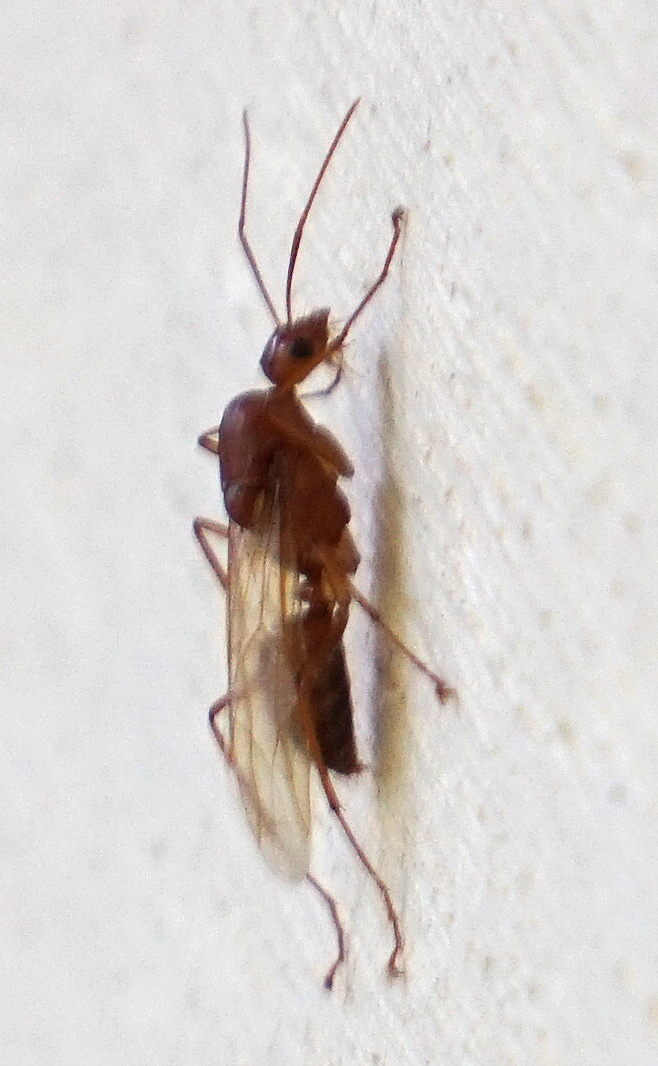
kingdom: Animalia
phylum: Arthropoda
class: Insecta
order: Hymenoptera
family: Formicidae
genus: Camponotus
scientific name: Camponotus castaneus
